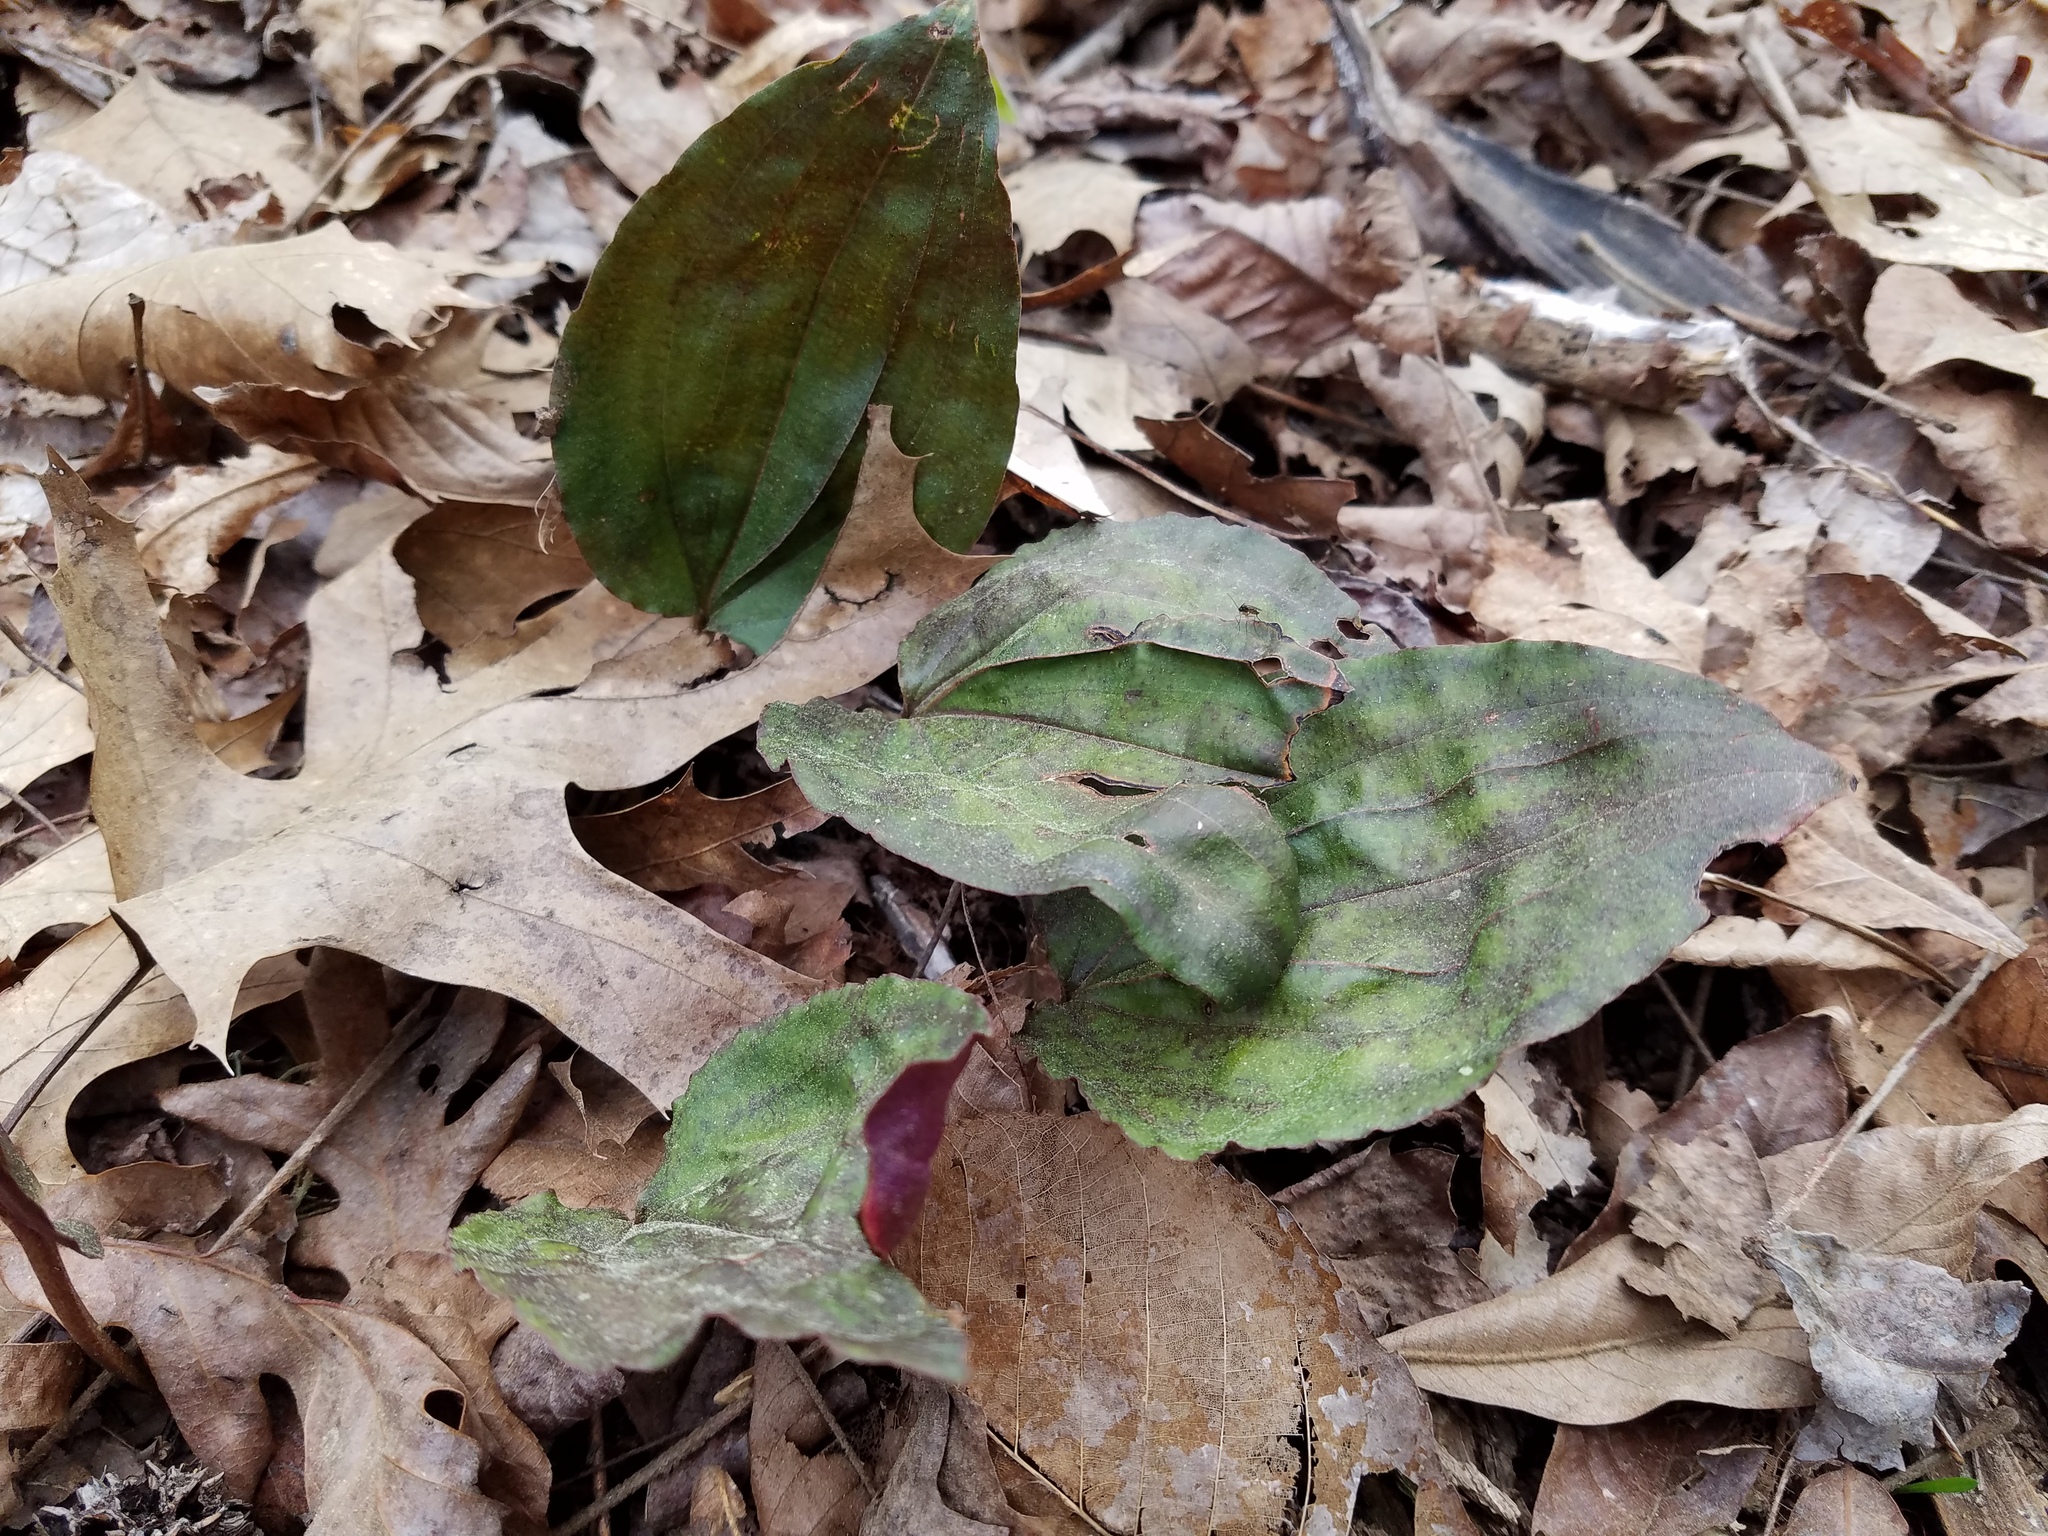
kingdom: Plantae
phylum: Tracheophyta
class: Liliopsida
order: Asparagales
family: Orchidaceae
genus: Tipularia
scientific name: Tipularia discolor
